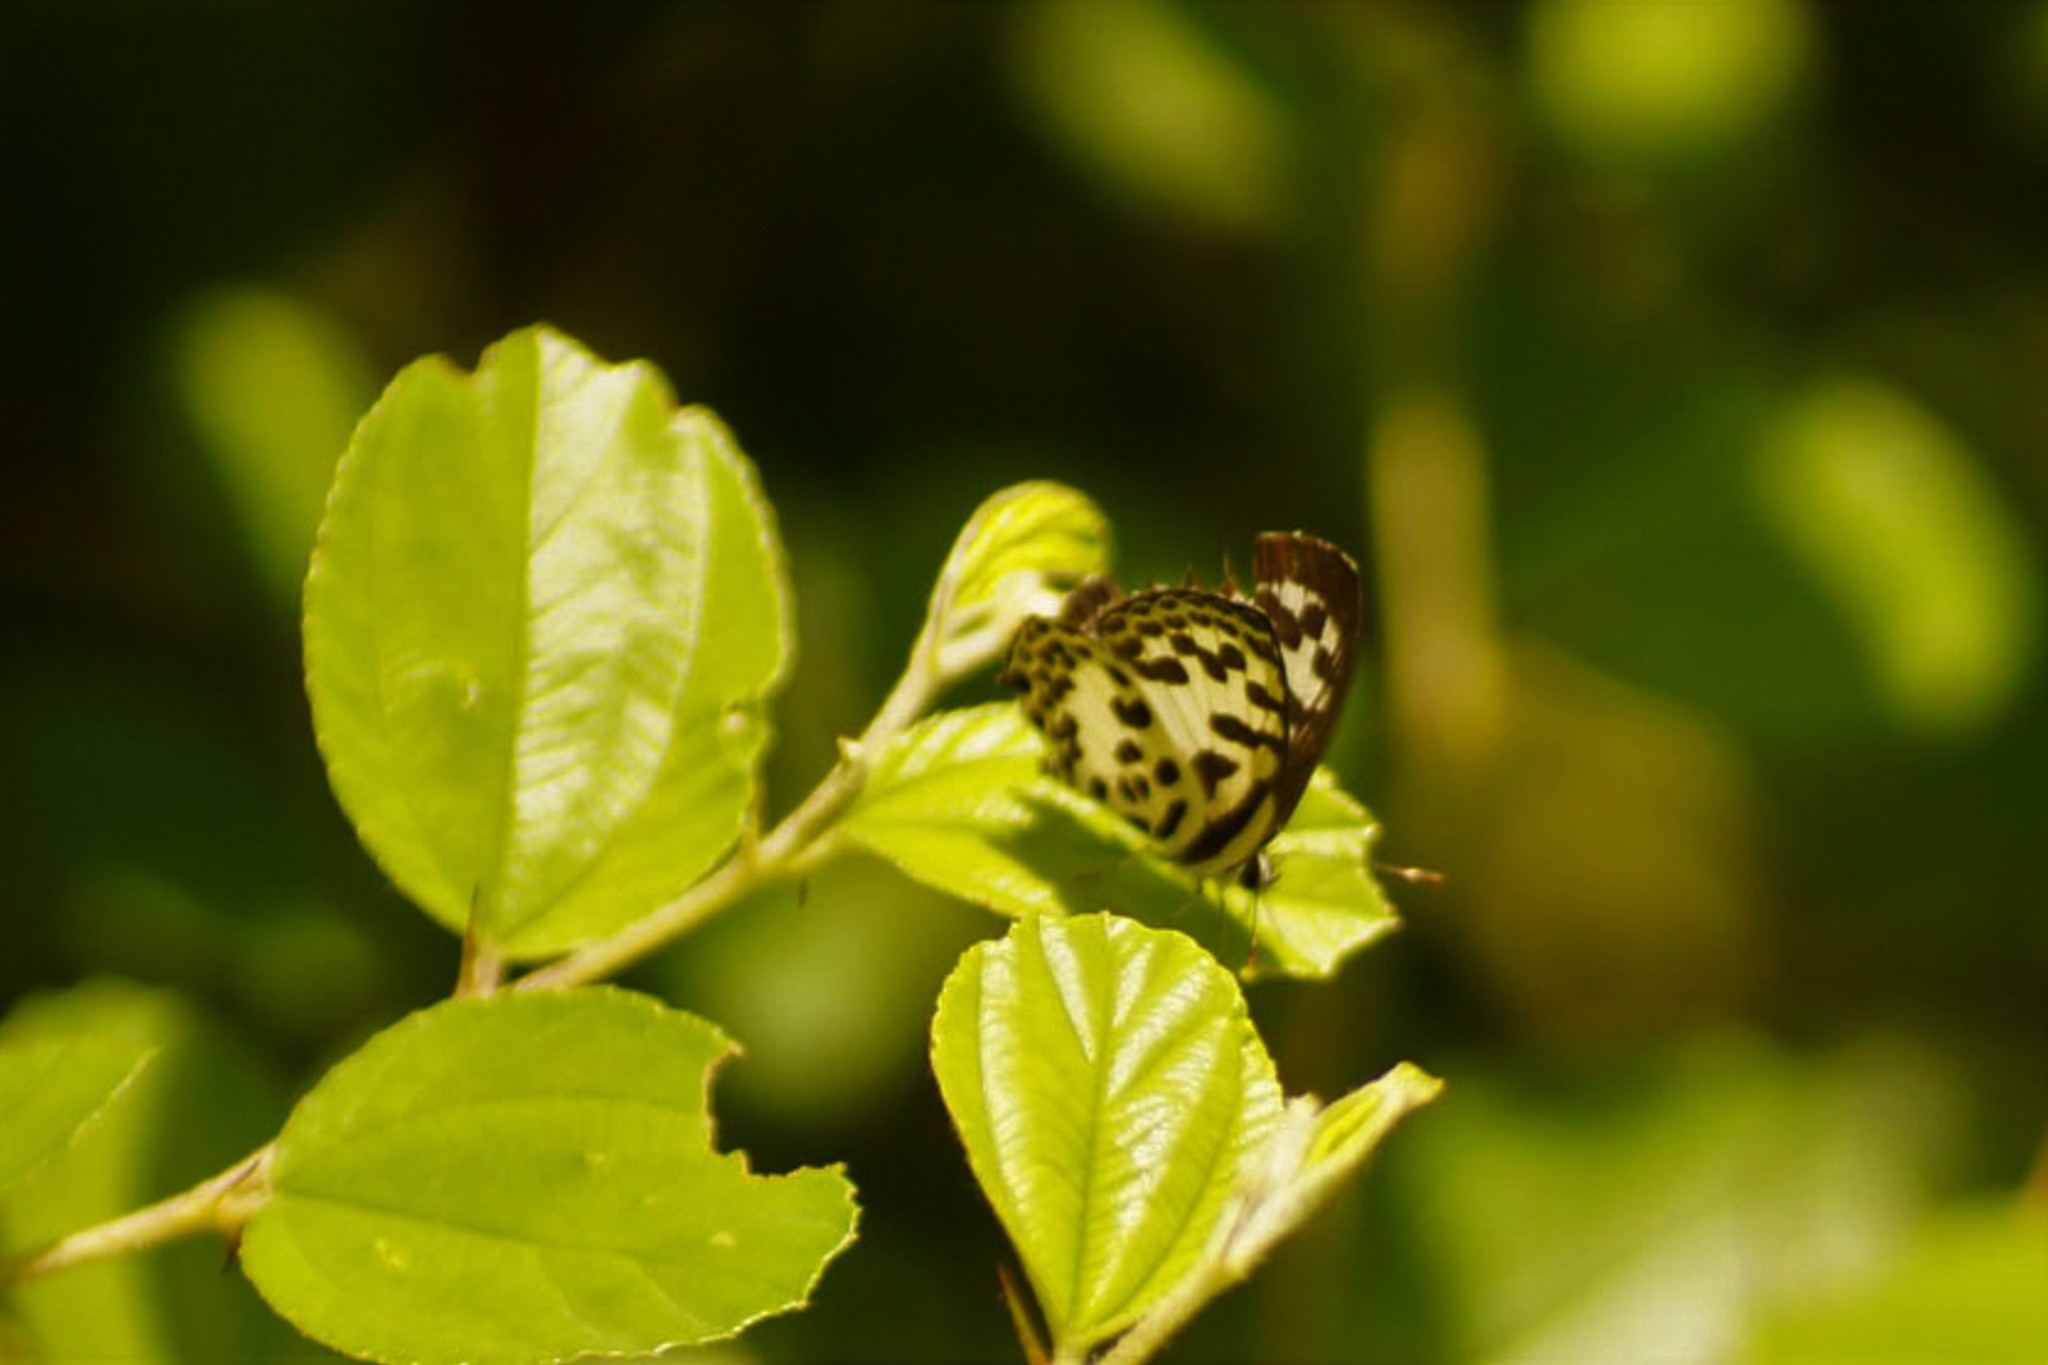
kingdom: Animalia
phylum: Arthropoda
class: Insecta
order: Lepidoptera
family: Lycaenidae
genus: Castalius
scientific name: Castalius rosimon
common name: Common pierrot
